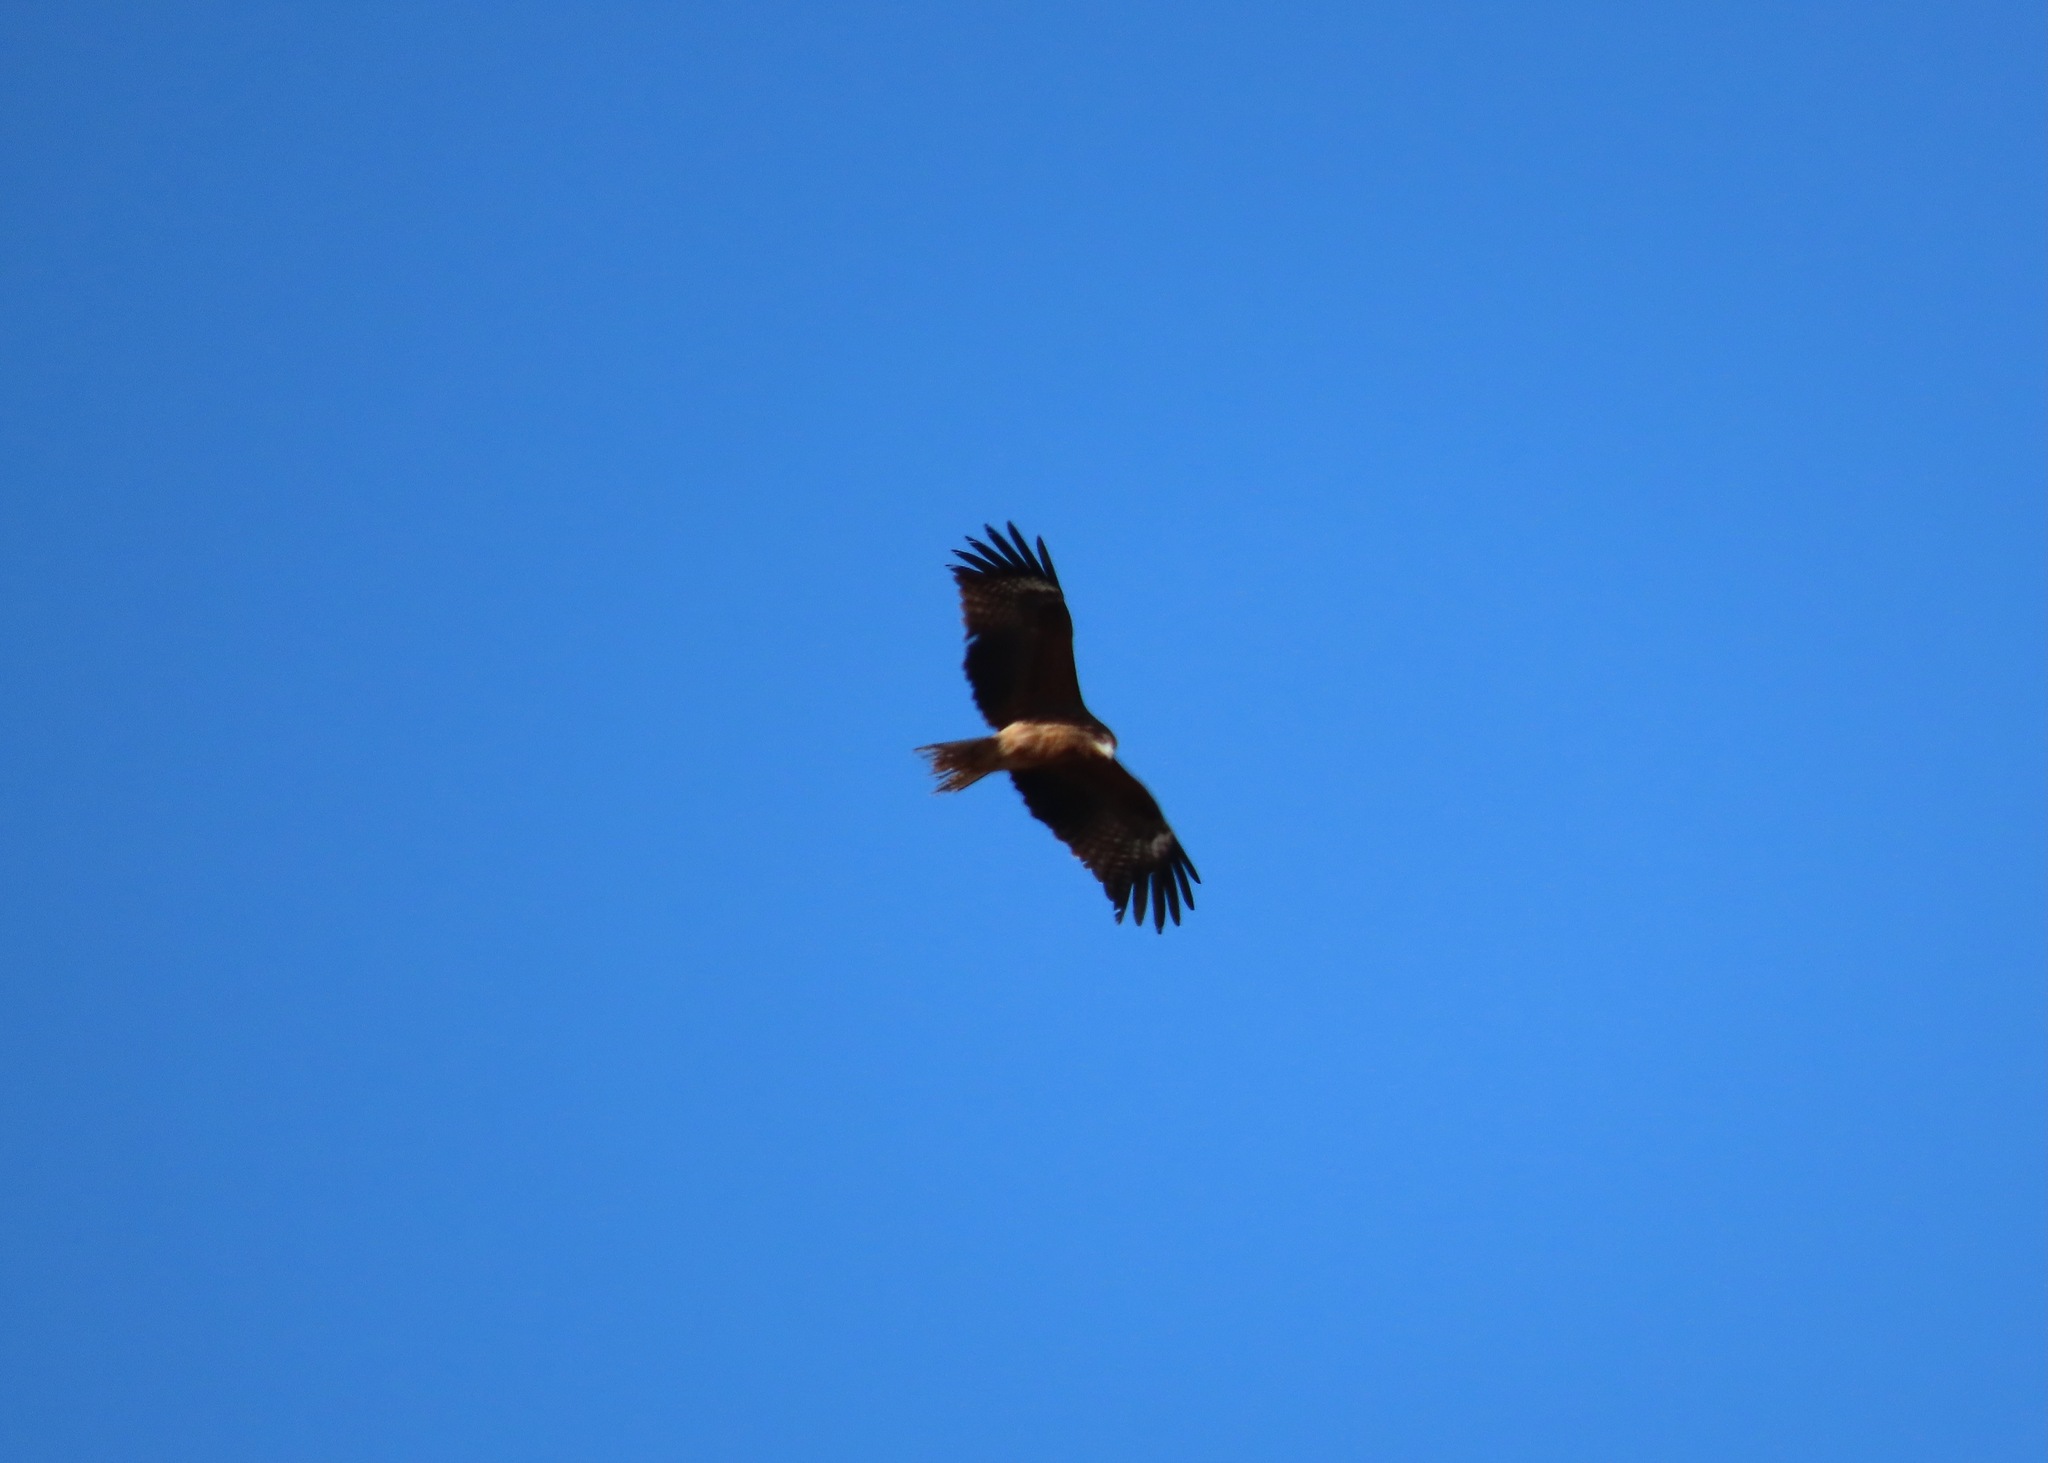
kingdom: Animalia
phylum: Chordata
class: Aves
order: Accipitriformes
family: Accipitridae
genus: Milvus
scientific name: Milvus migrans
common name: Black kite
